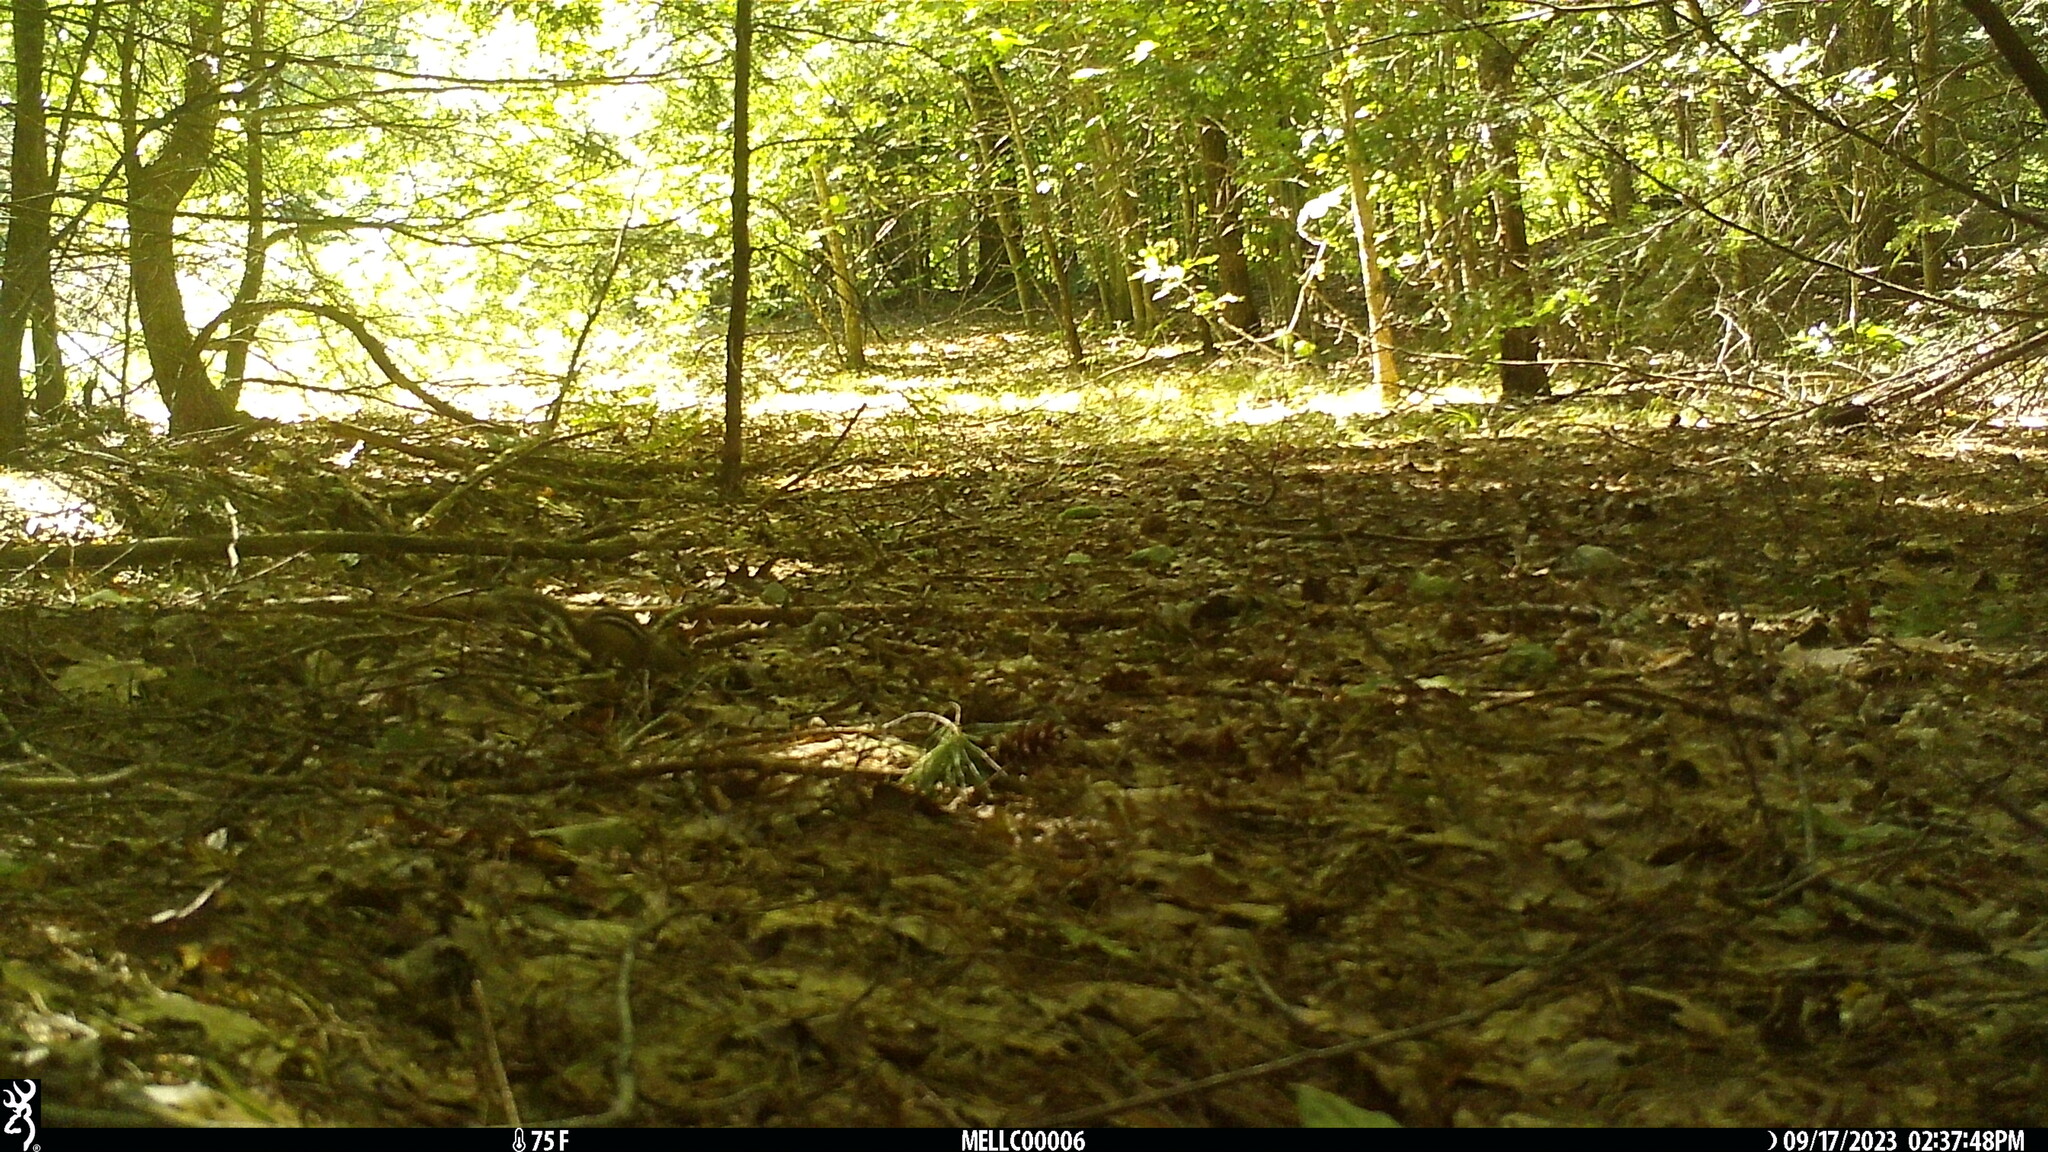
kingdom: Animalia
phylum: Chordata
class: Mammalia
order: Rodentia
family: Sciuridae
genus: Tamias
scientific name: Tamias striatus
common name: Eastern chipmunk
